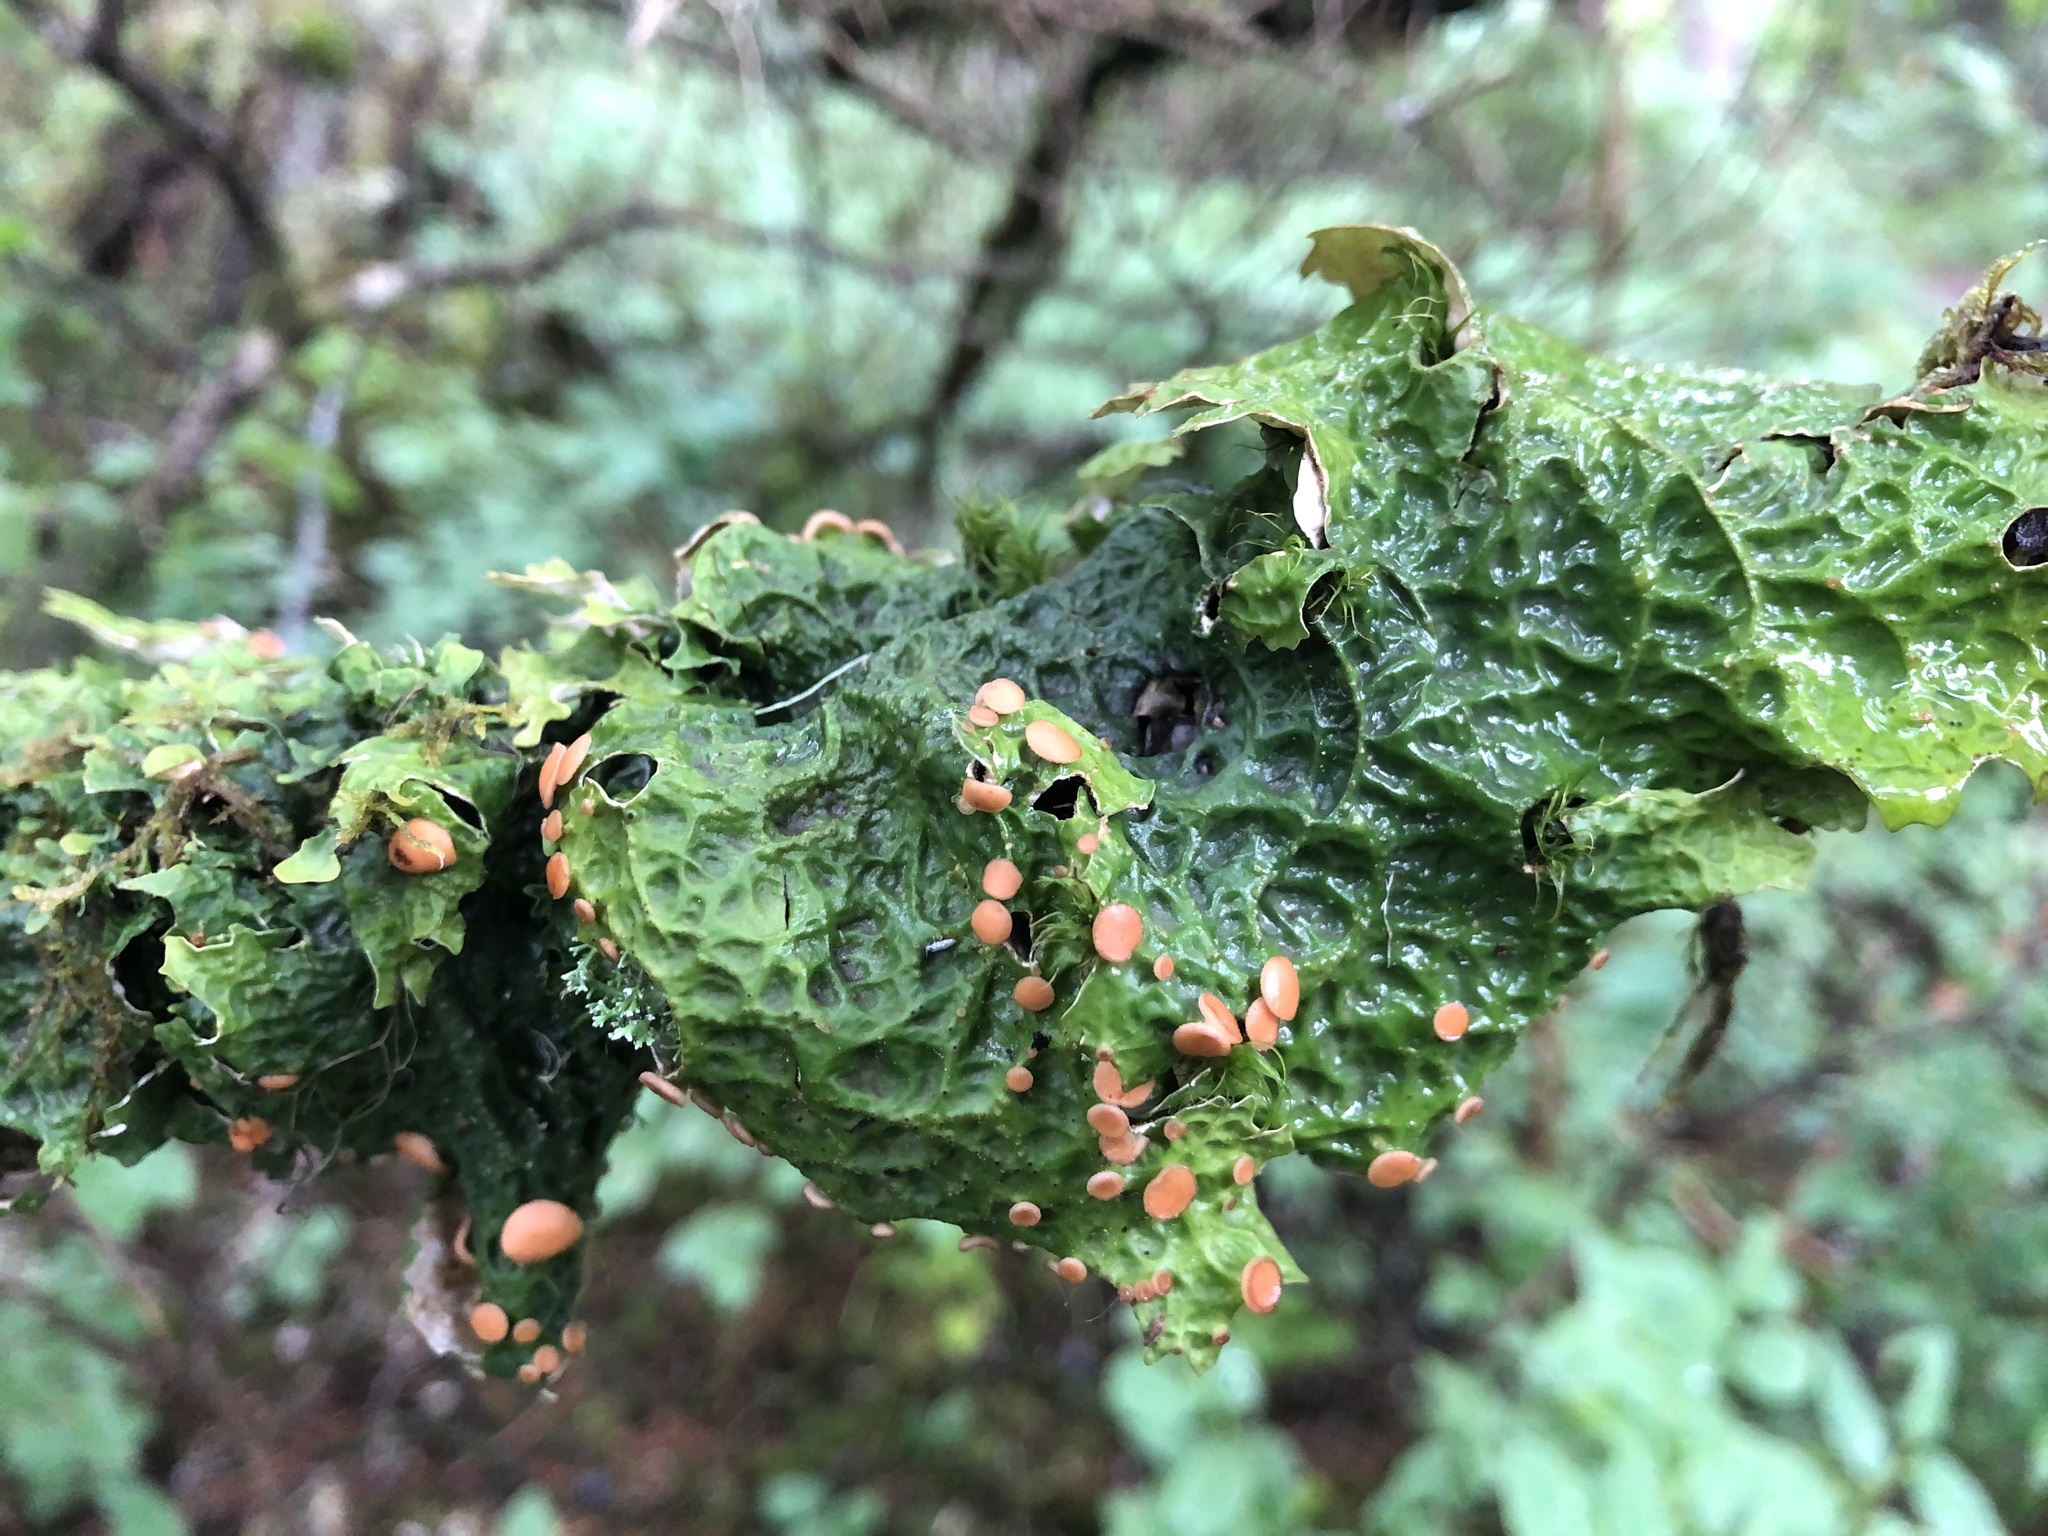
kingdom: Fungi
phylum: Ascomycota
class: Lecanoromycetes
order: Peltigerales
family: Lobariaceae
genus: Lobaria
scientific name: Lobaria linita
